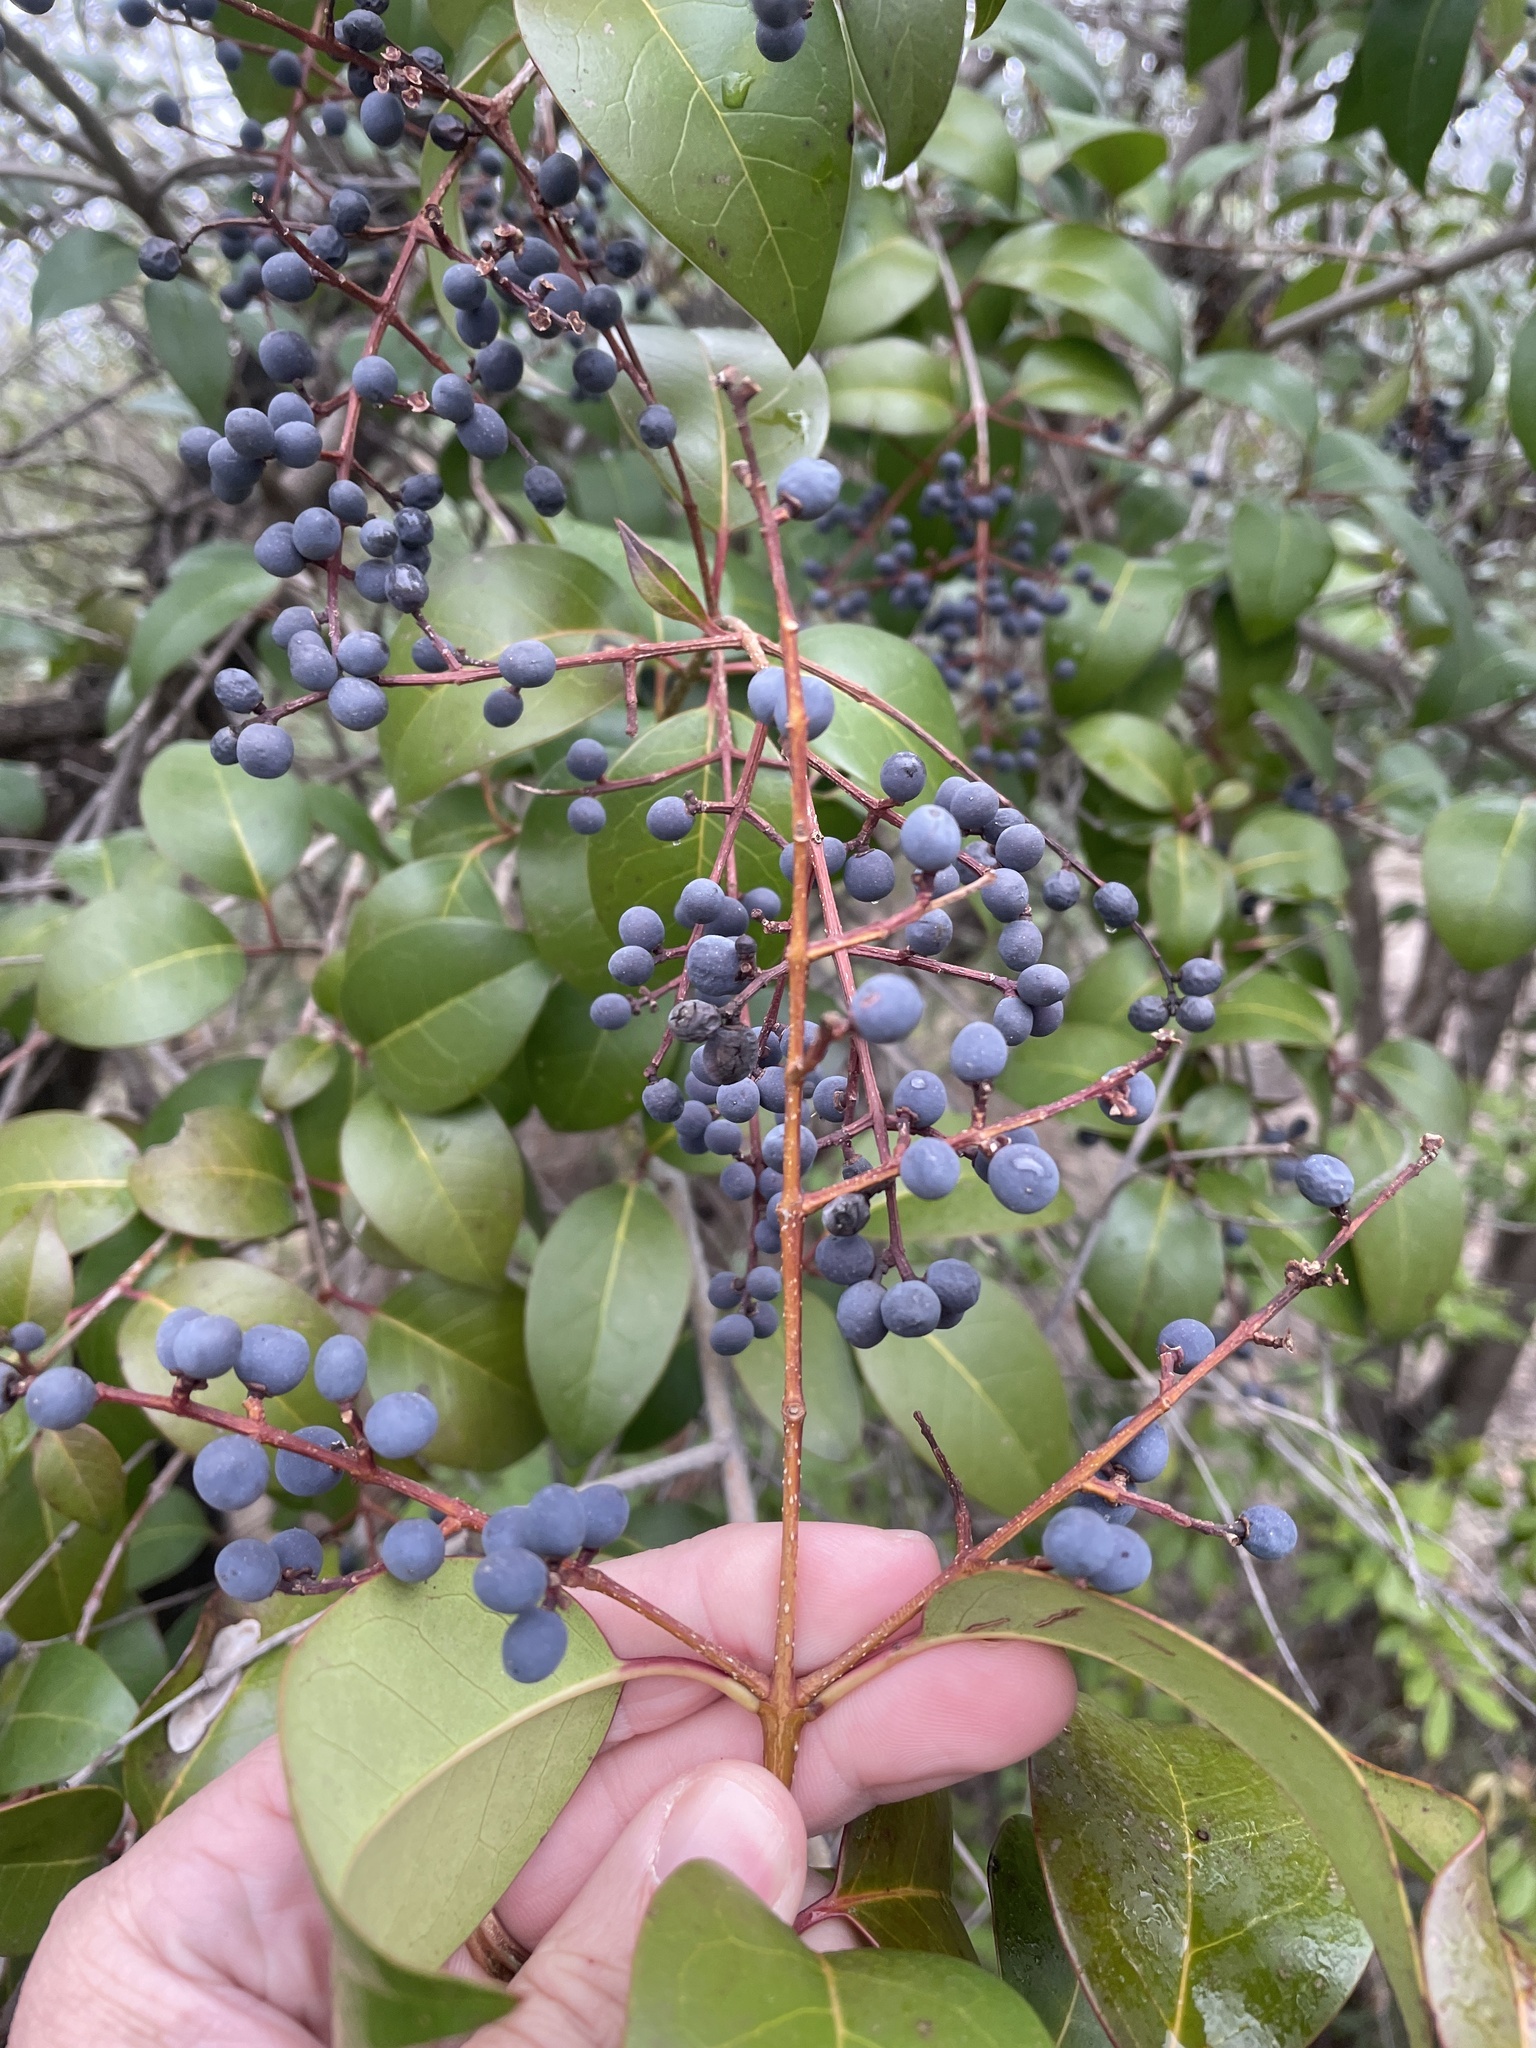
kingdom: Plantae
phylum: Tracheophyta
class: Magnoliopsida
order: Lamiales
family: Oleaceae
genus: Ligustrum
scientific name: Ligustrum lucidum
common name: Glossy privet
